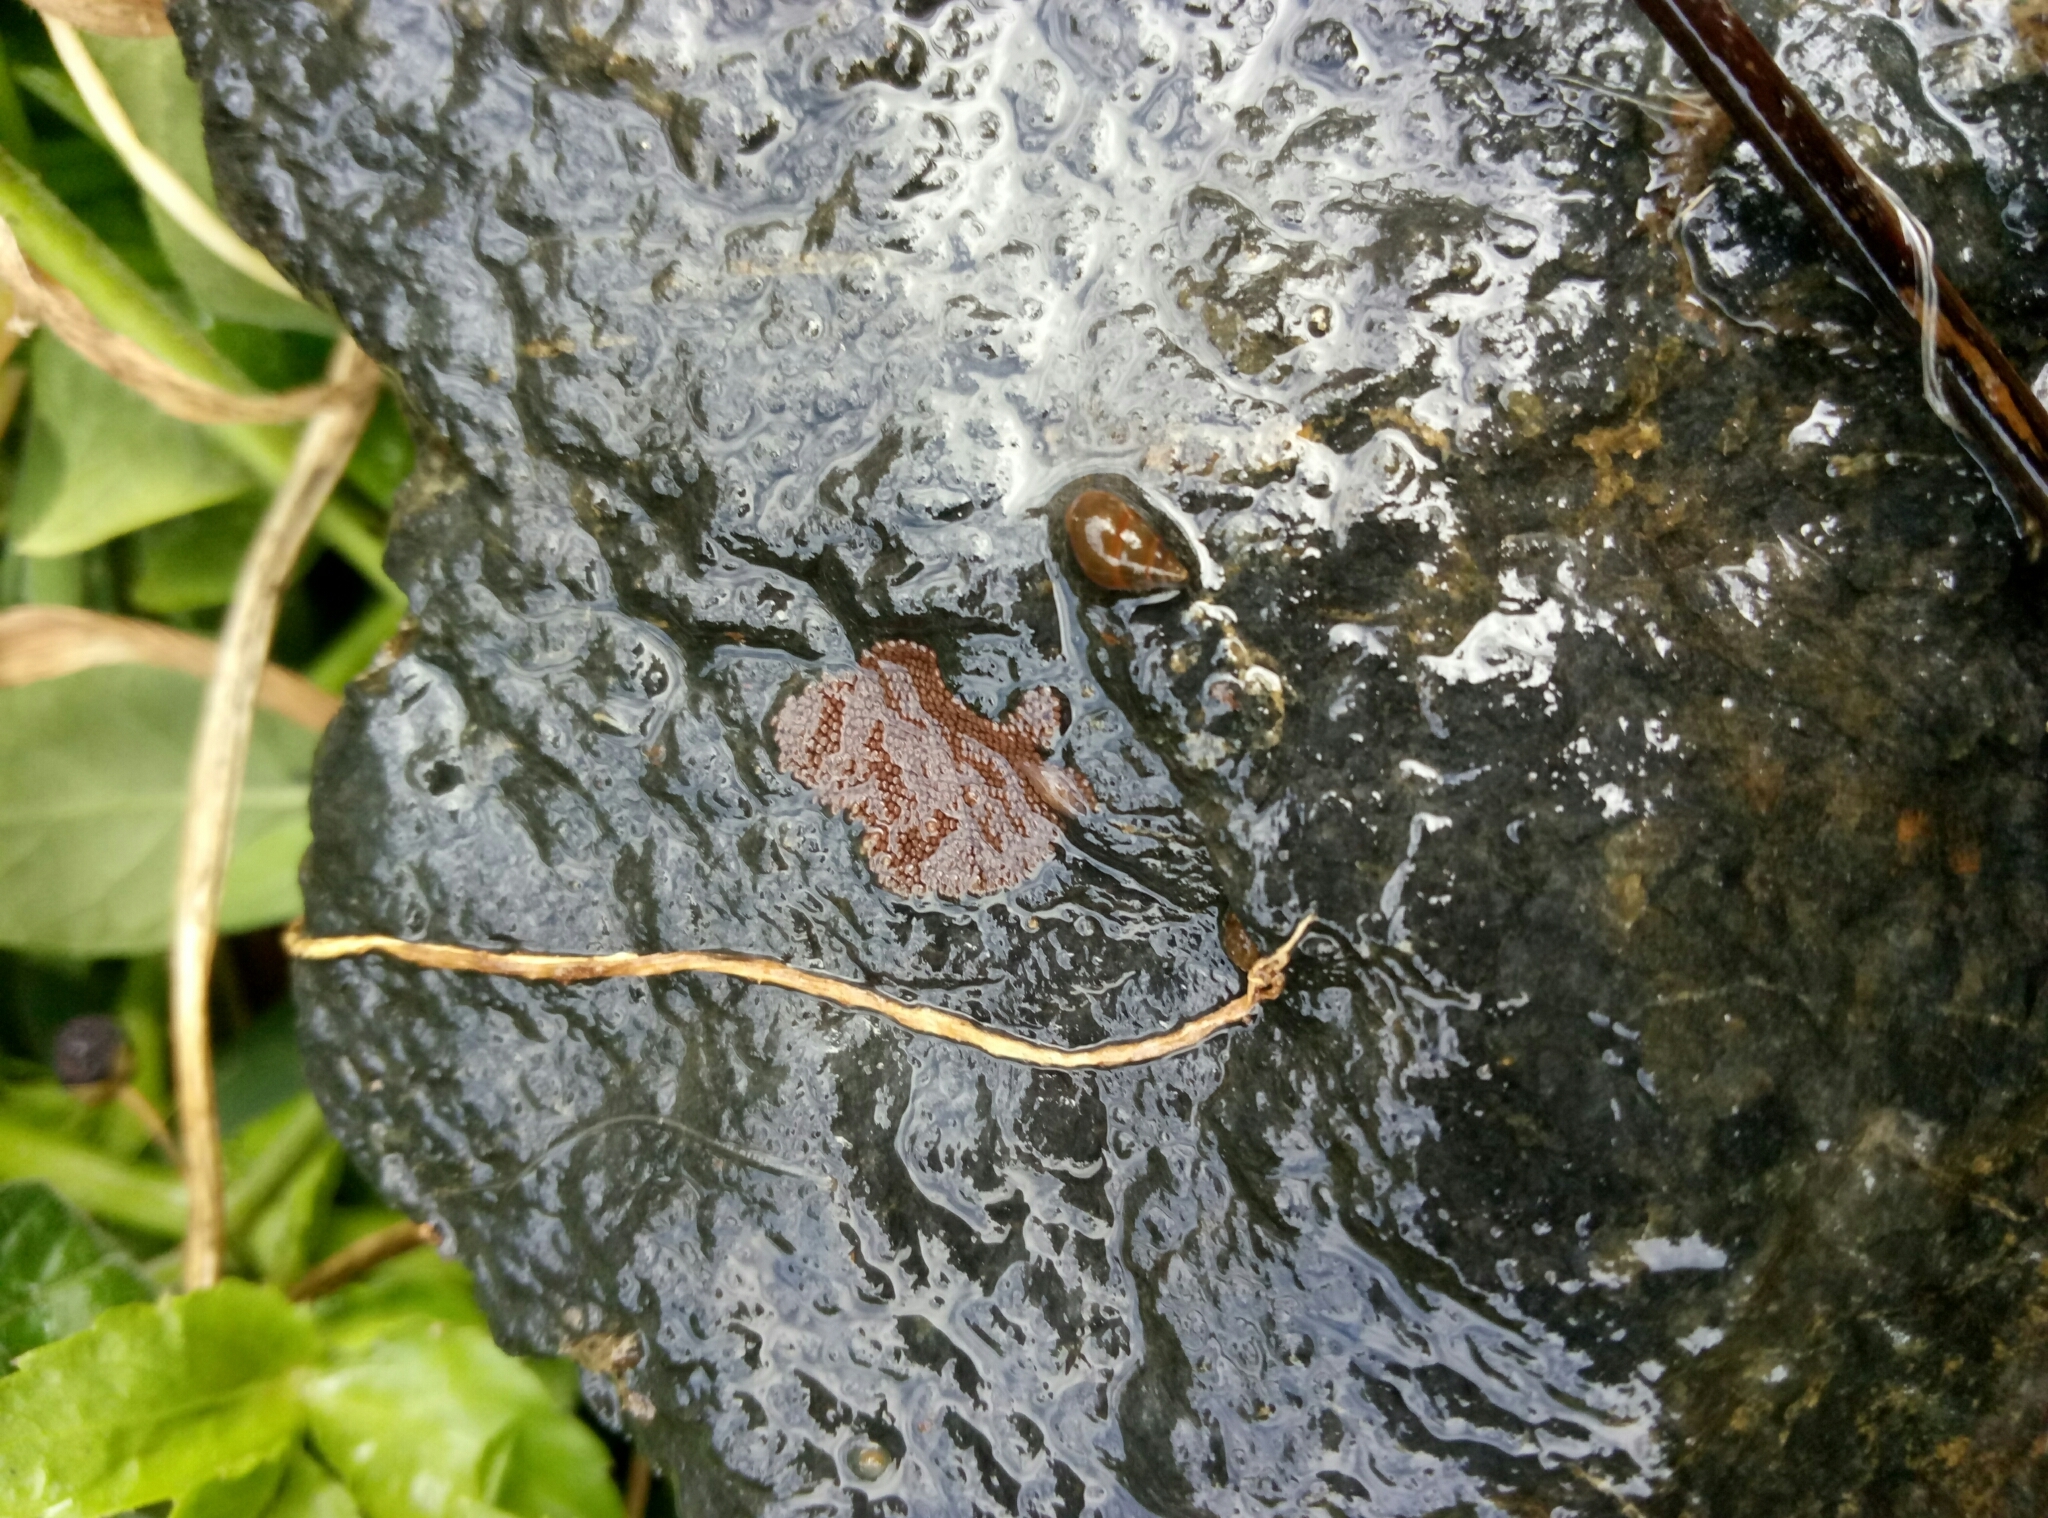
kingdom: Animalia
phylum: Mollusca
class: Gastropoda
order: Littorinimorpha
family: Tateidae
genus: Potamopyrgus
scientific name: Potamopyrgus antipodarum
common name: Jenkins' spire snail
